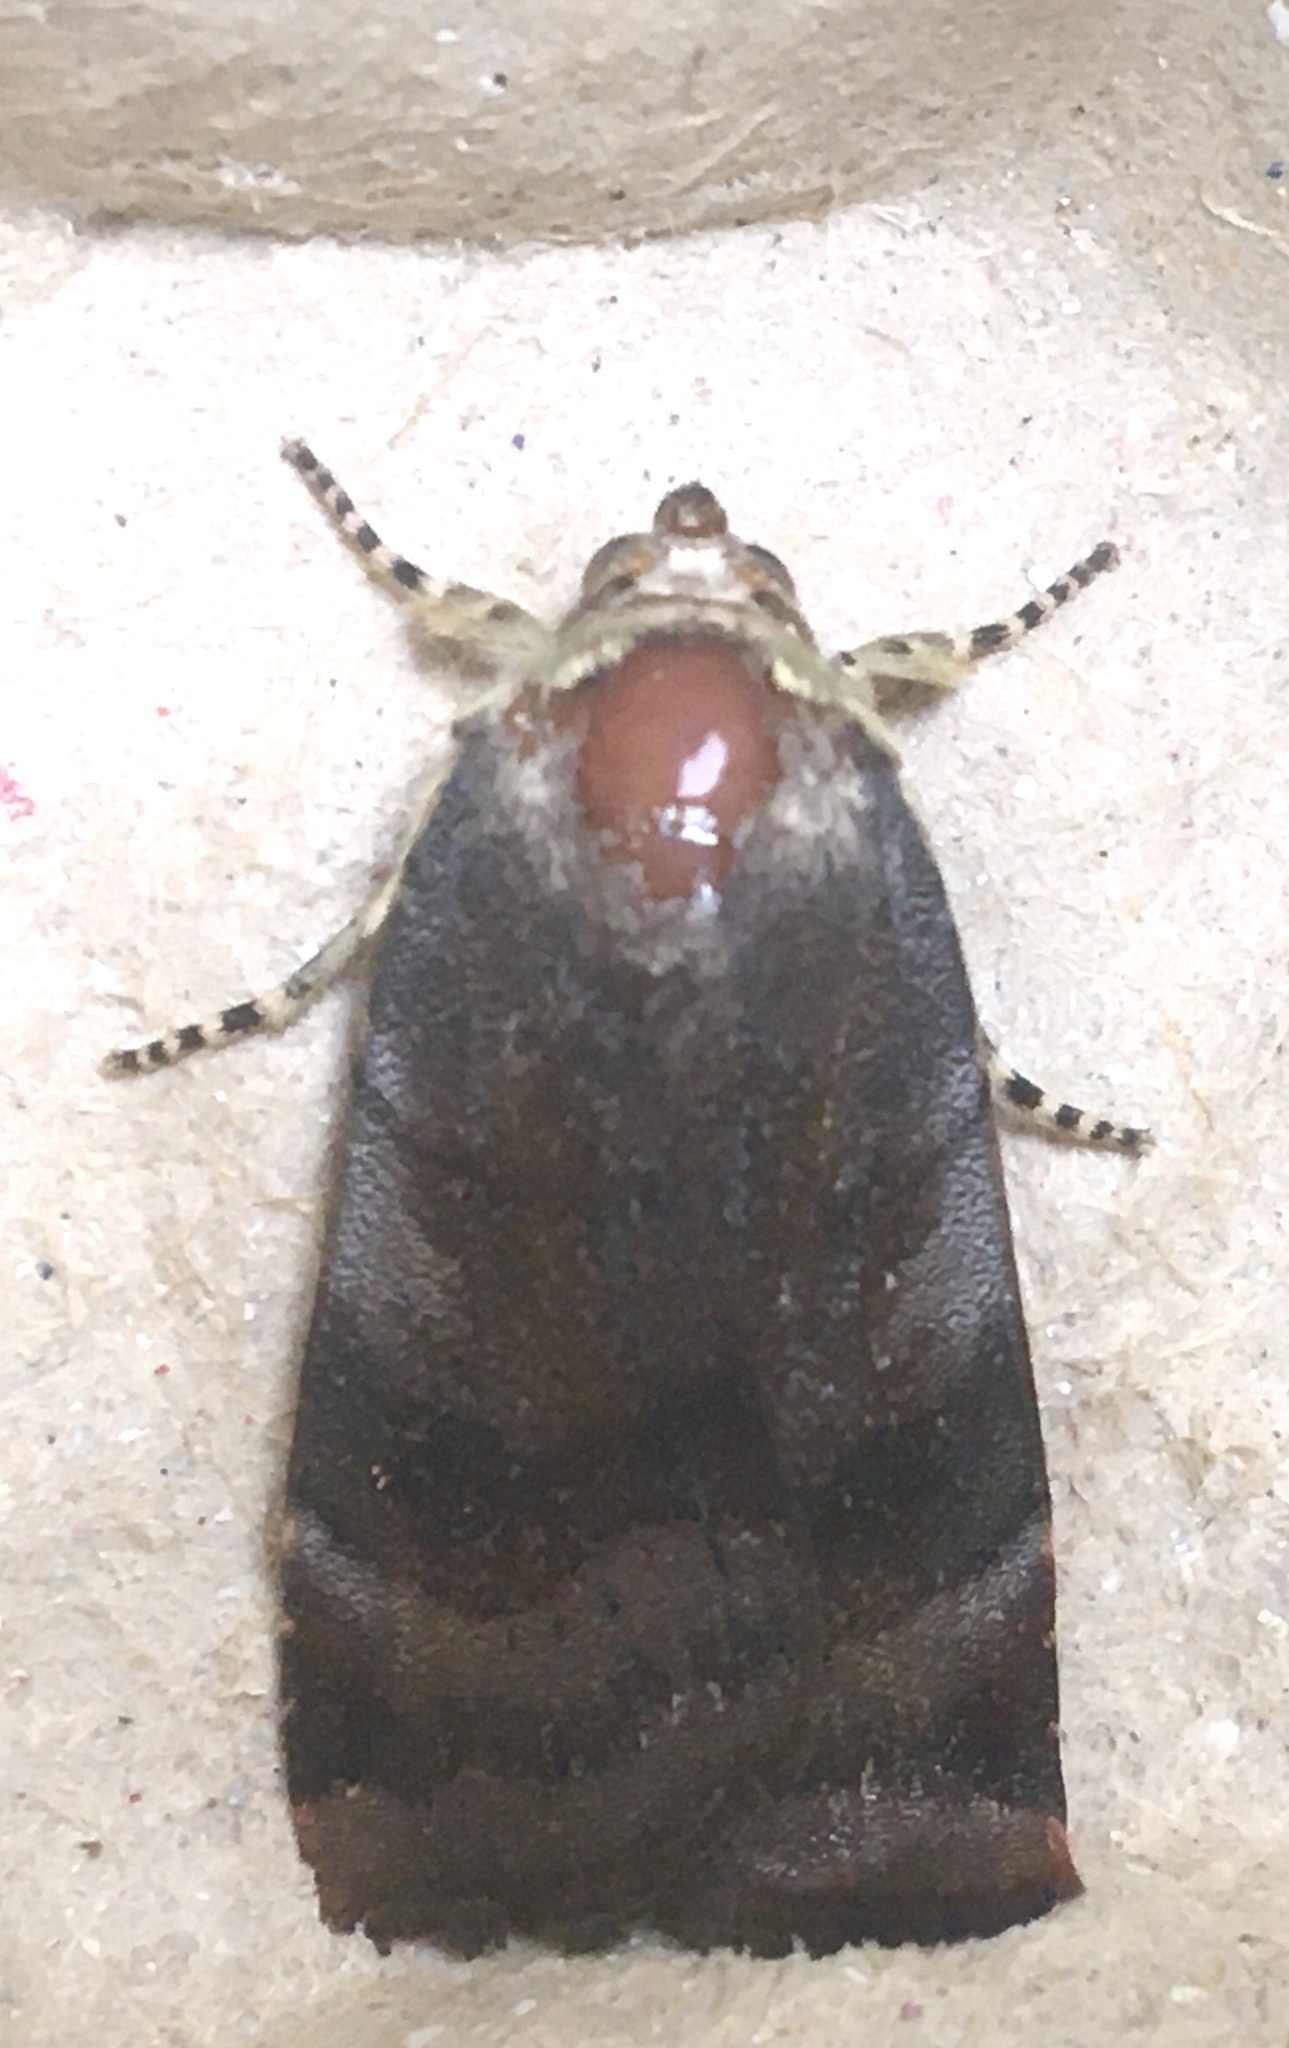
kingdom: Animalia
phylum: Arthropoda
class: Insecta
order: Lepidoptera
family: Noctuidae
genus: Noctua
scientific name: Noctua janthe
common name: Lesser broad-bordered yellow underwing
